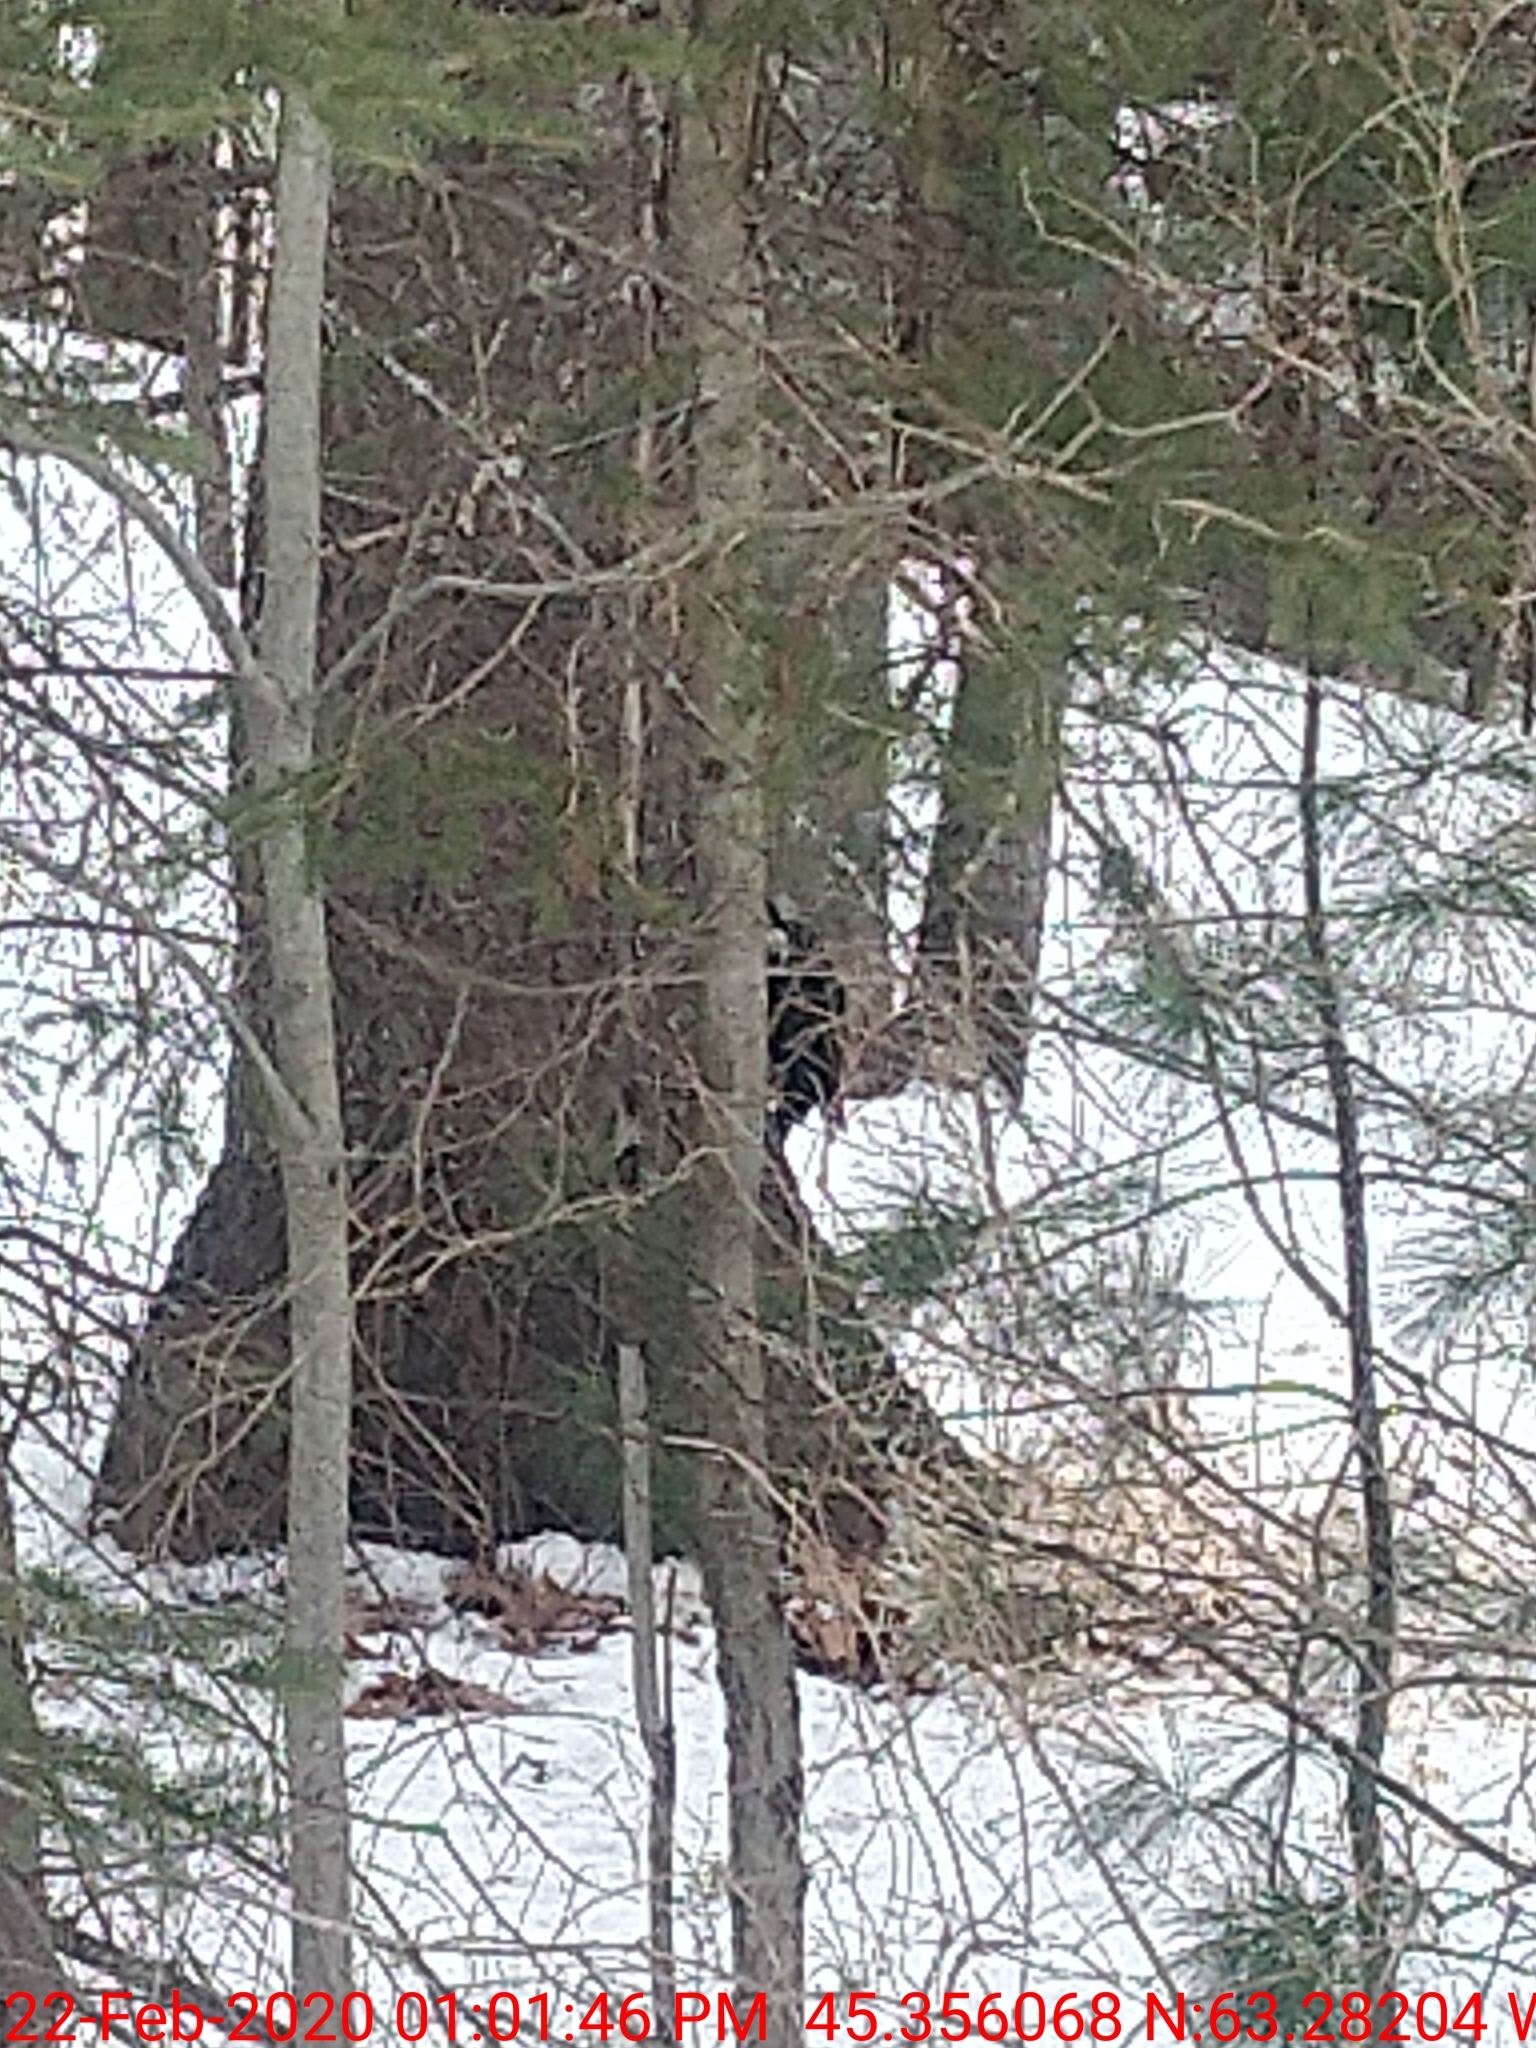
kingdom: Animalia
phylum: Chordata
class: Aves
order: Piciformes
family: Picidae
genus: Dryocopus
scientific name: Dryocopus pileatus
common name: Pileated woodpecker
